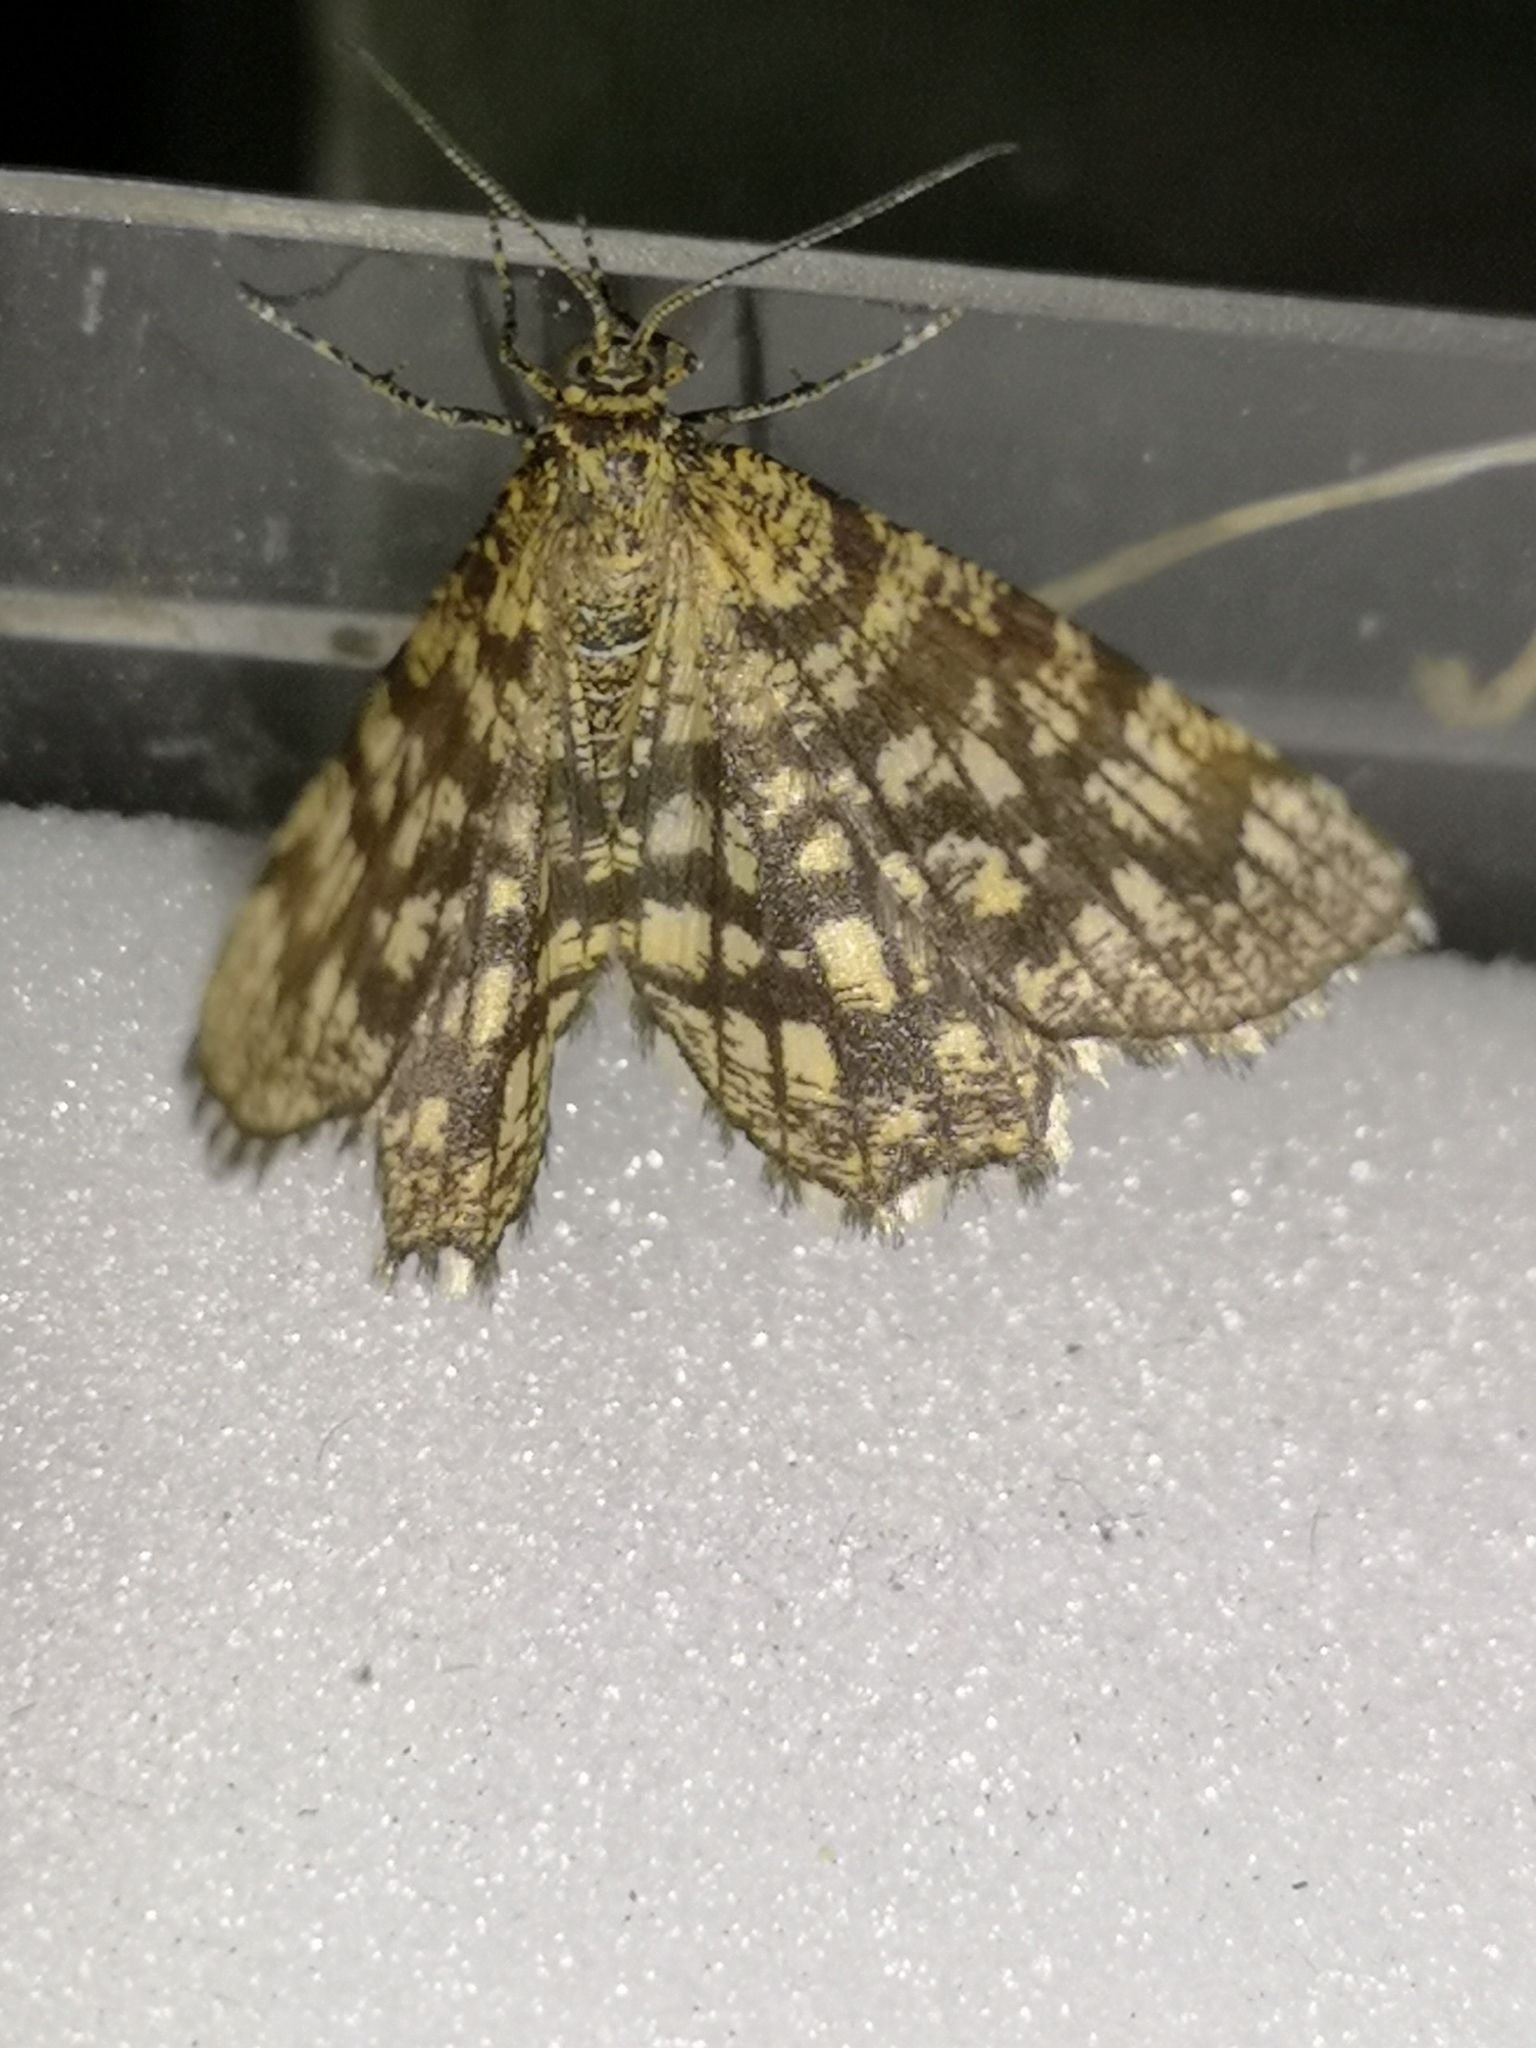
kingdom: Animalia
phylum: Arthropoda
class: Insecta
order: Lepidoptera
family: Geometridae
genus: Chiasmia
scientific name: Chiasmia clathrata
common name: Latticed heath
